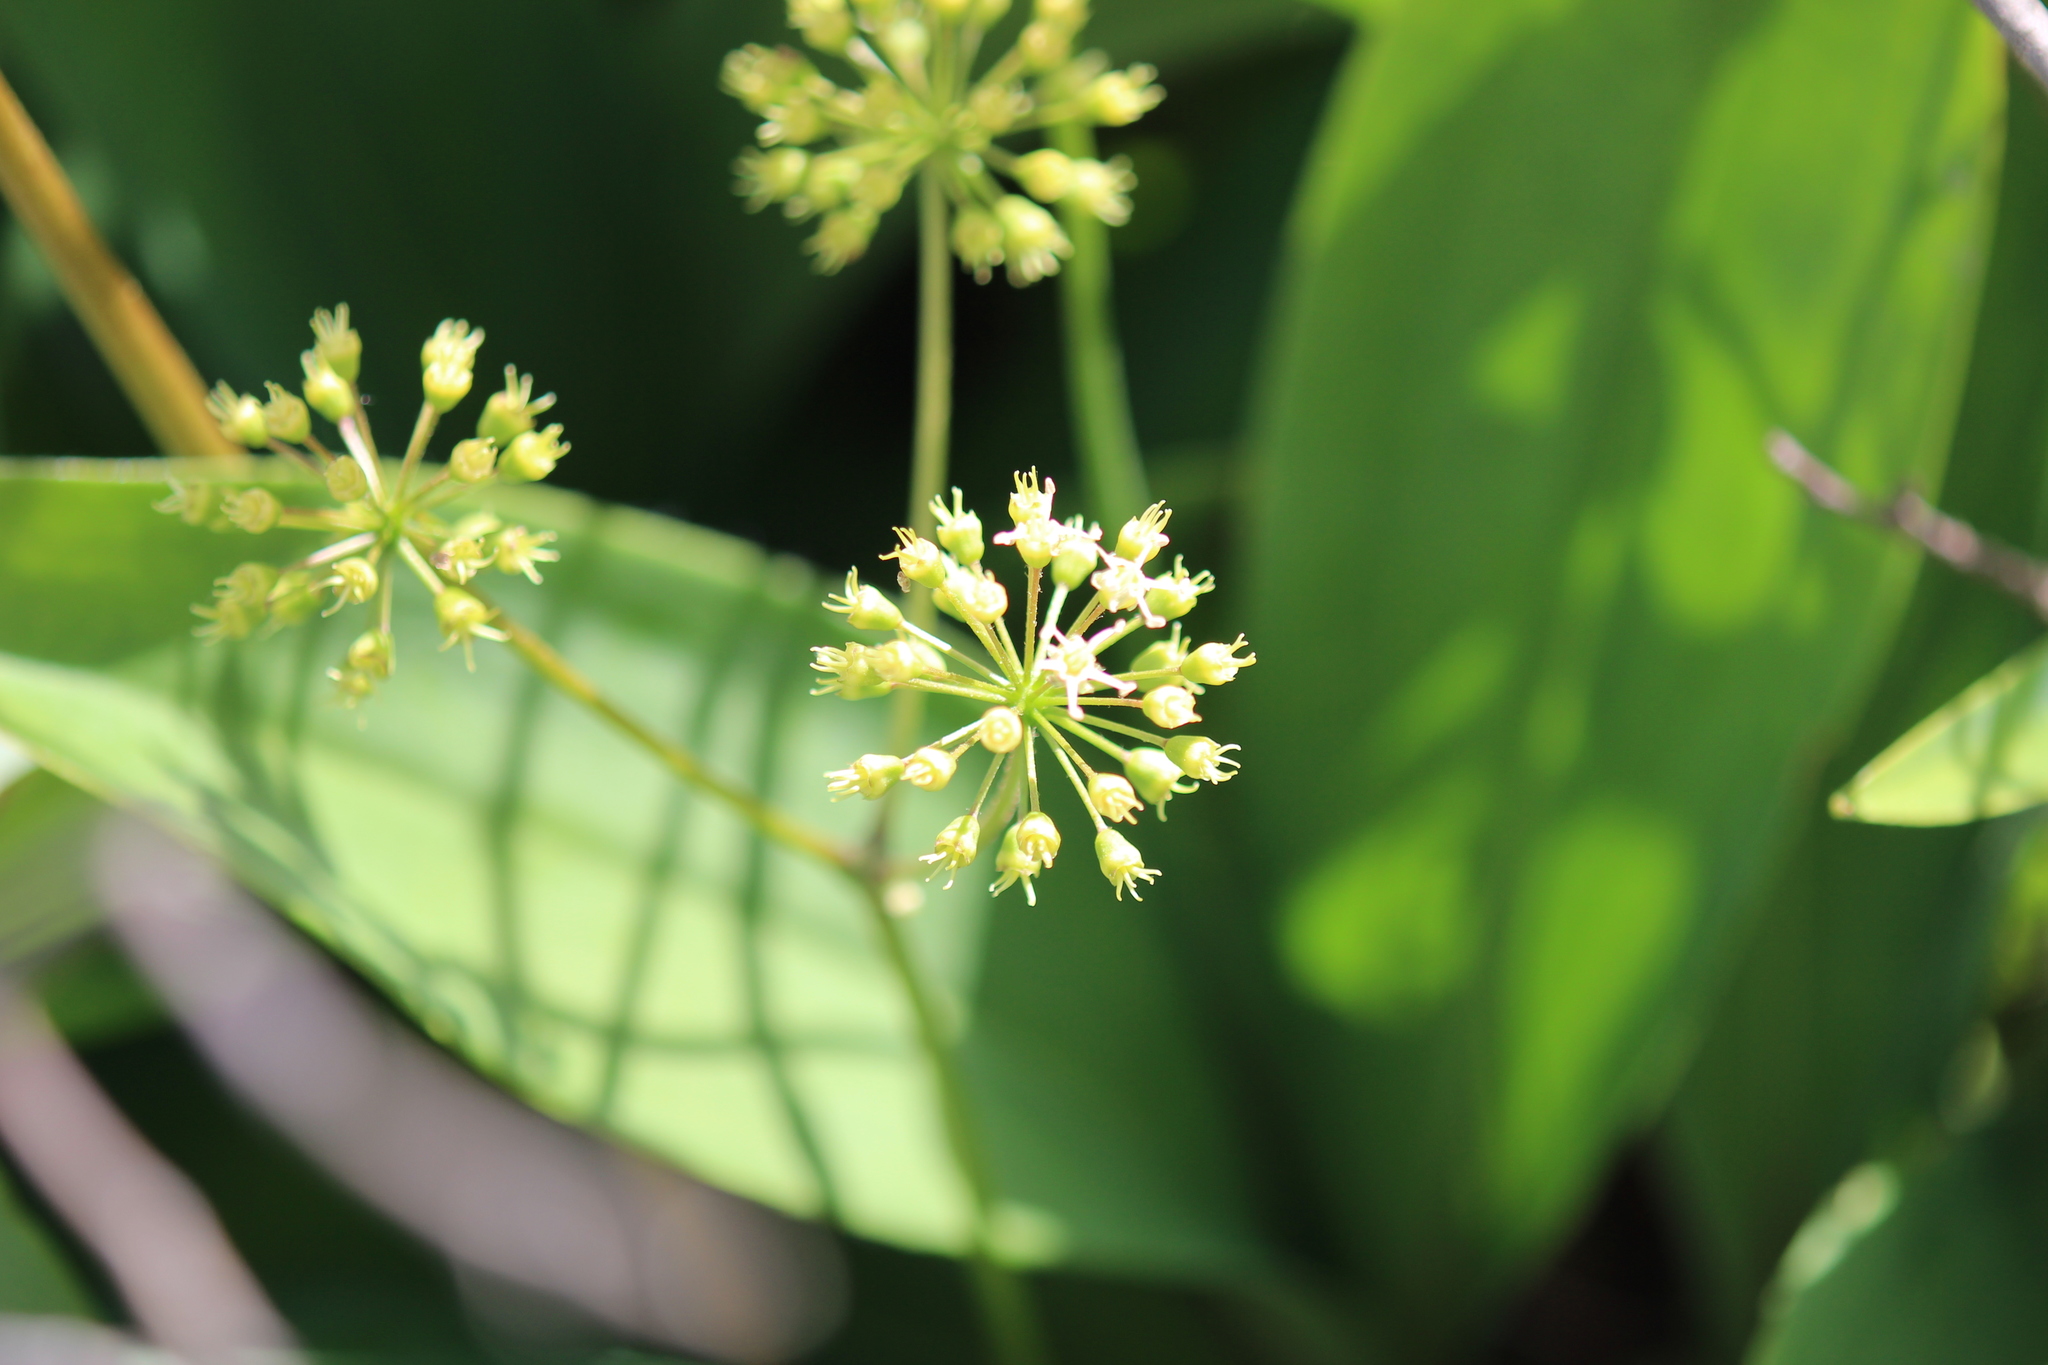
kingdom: Plantae
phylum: Tracheophyta
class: Magnoliopsida
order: Apiales
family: Araliaceae
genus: Aralia
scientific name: Aralia nudicaulis
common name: Wild sarsaparilla
